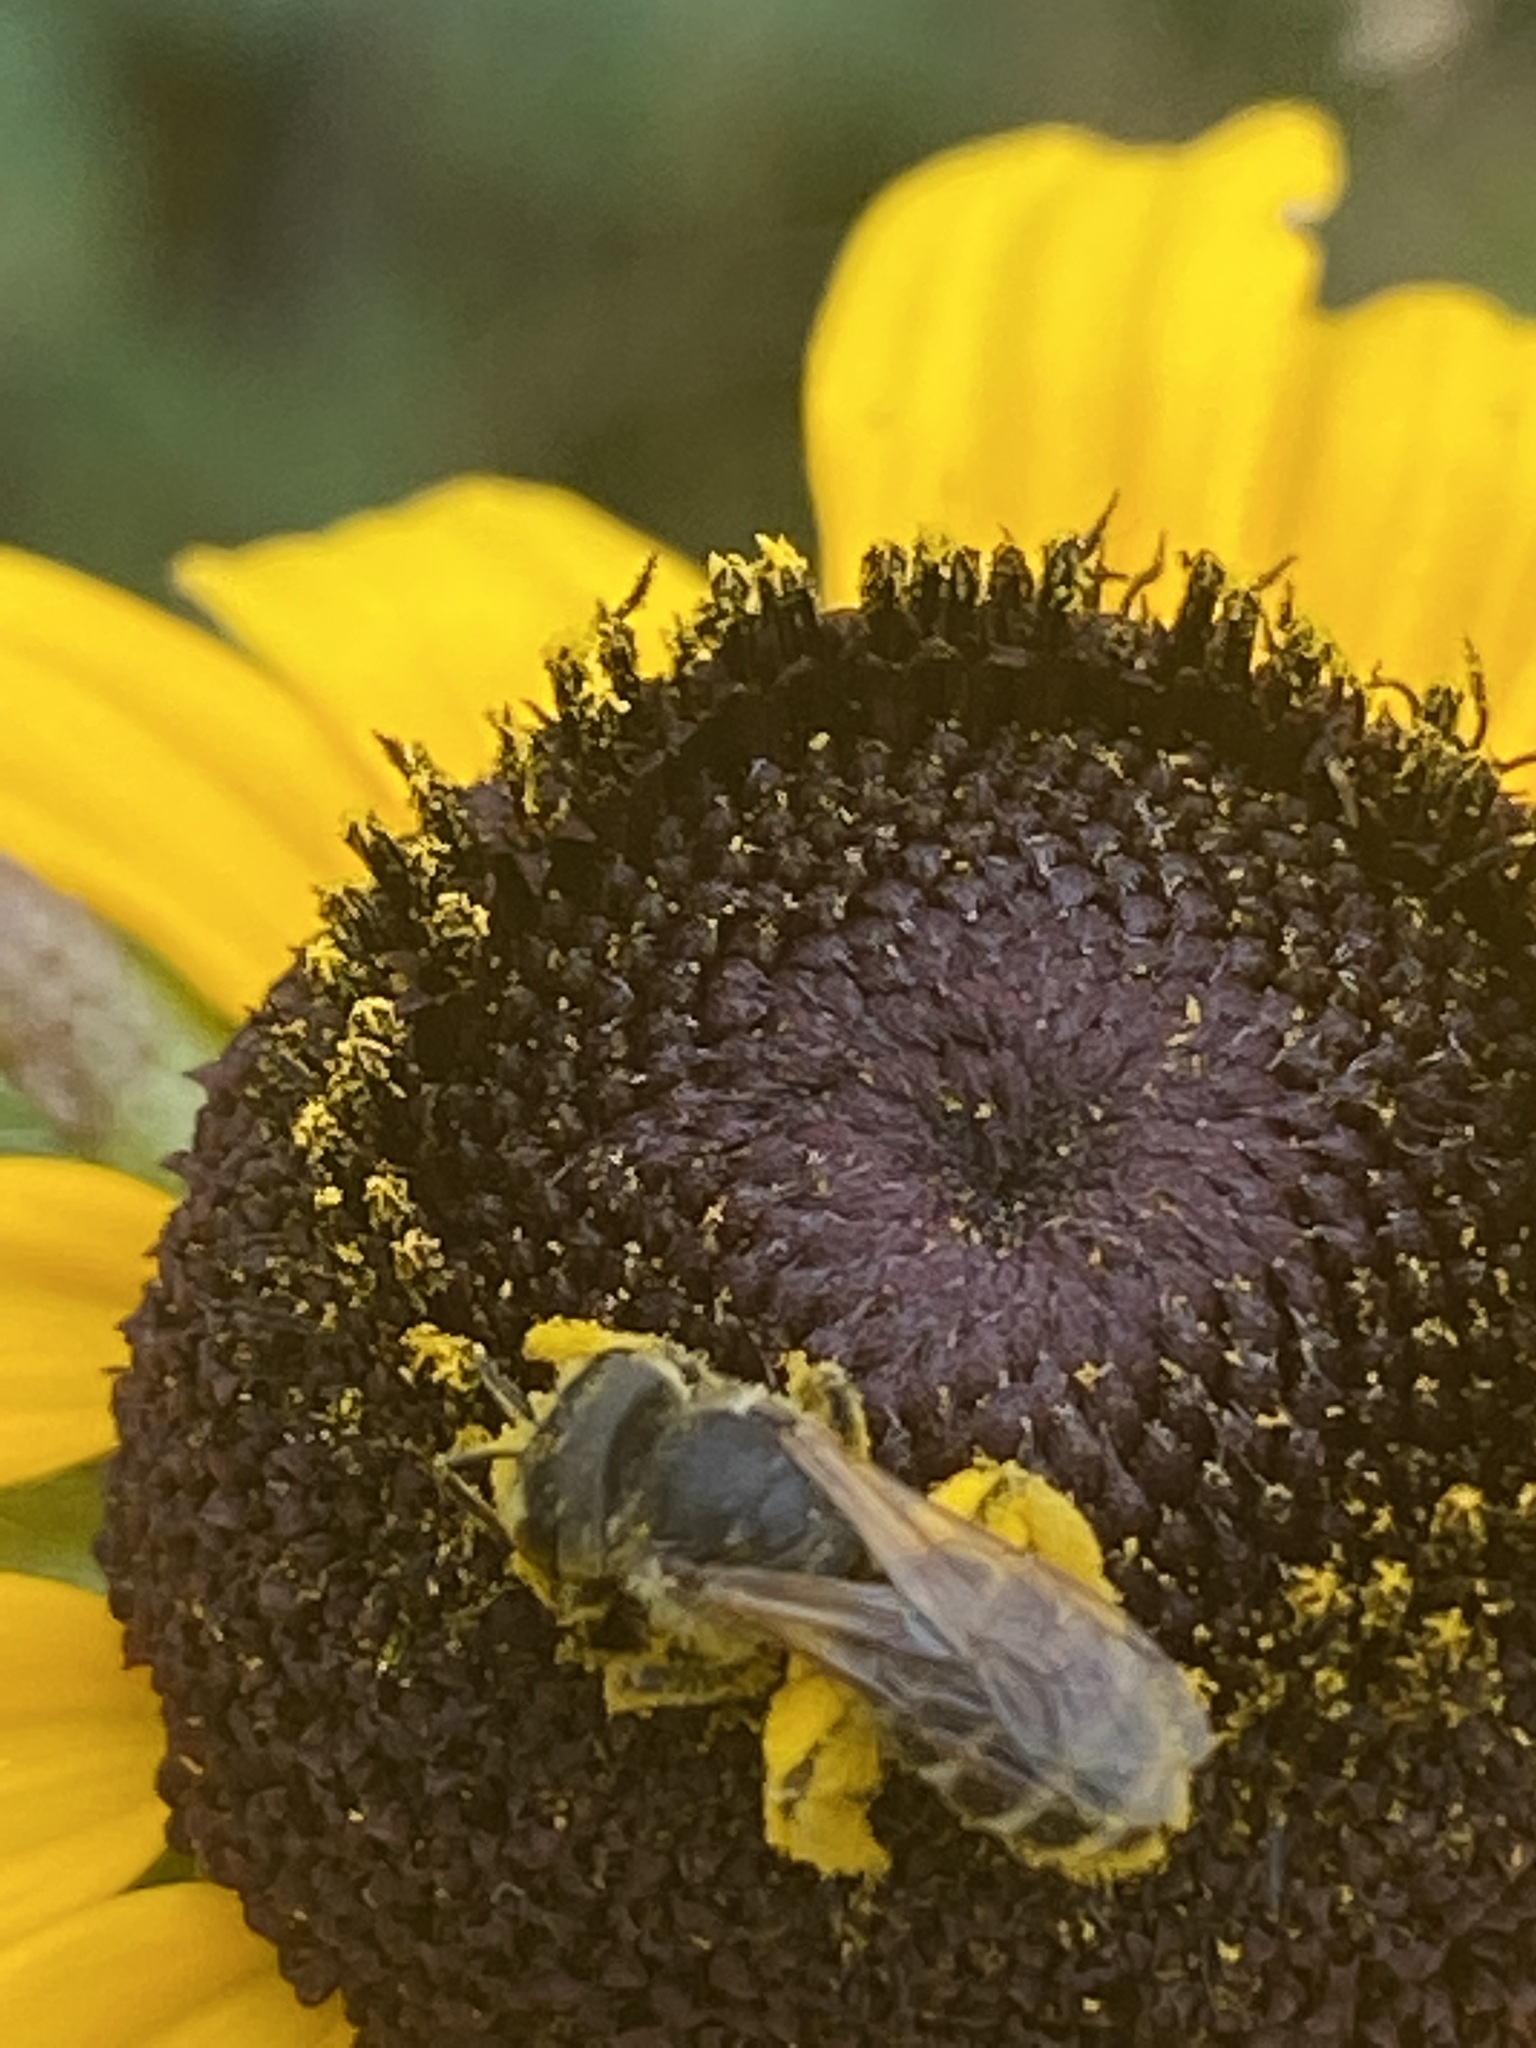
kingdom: Animalia
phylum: Arthropoda
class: Insecta
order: Hymenoptera
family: Halictidae
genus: Halictus
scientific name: Halictus ligatus
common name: Ligated furrow bee
